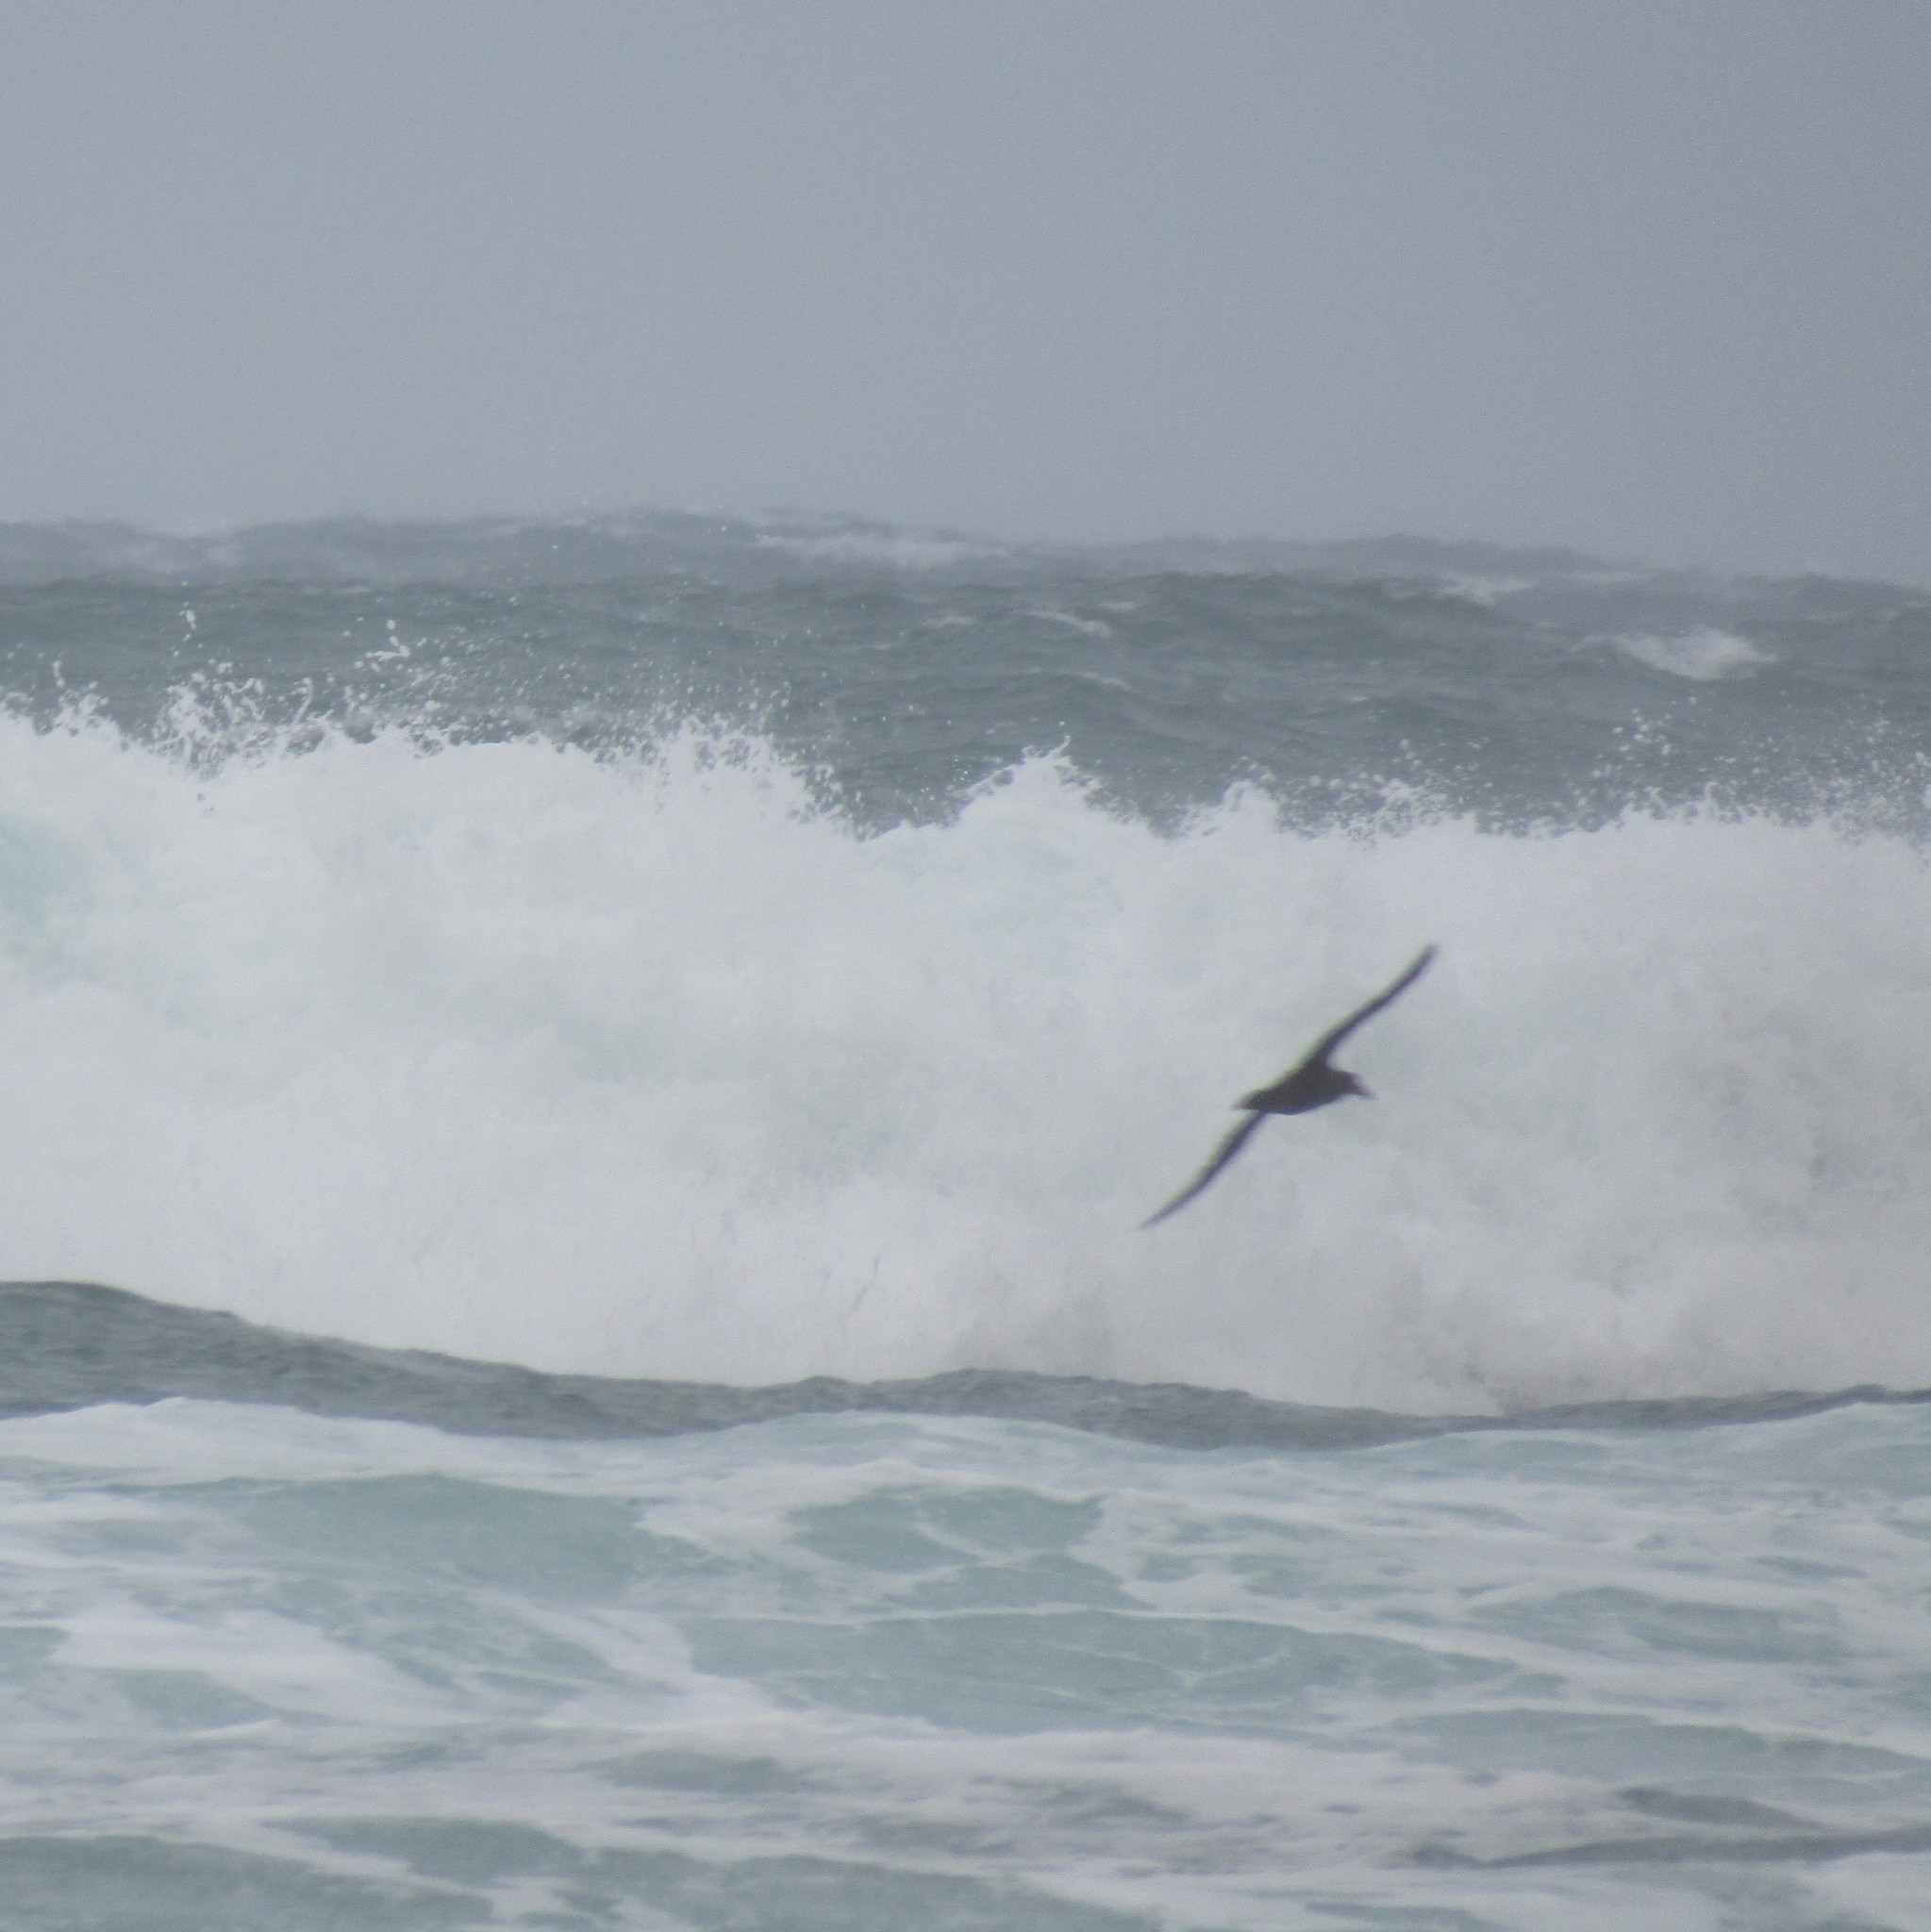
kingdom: Animalia
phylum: Chordata
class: Aves
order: Procellariiformes
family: Procellariidae
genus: Macronectes
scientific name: Macronectes
